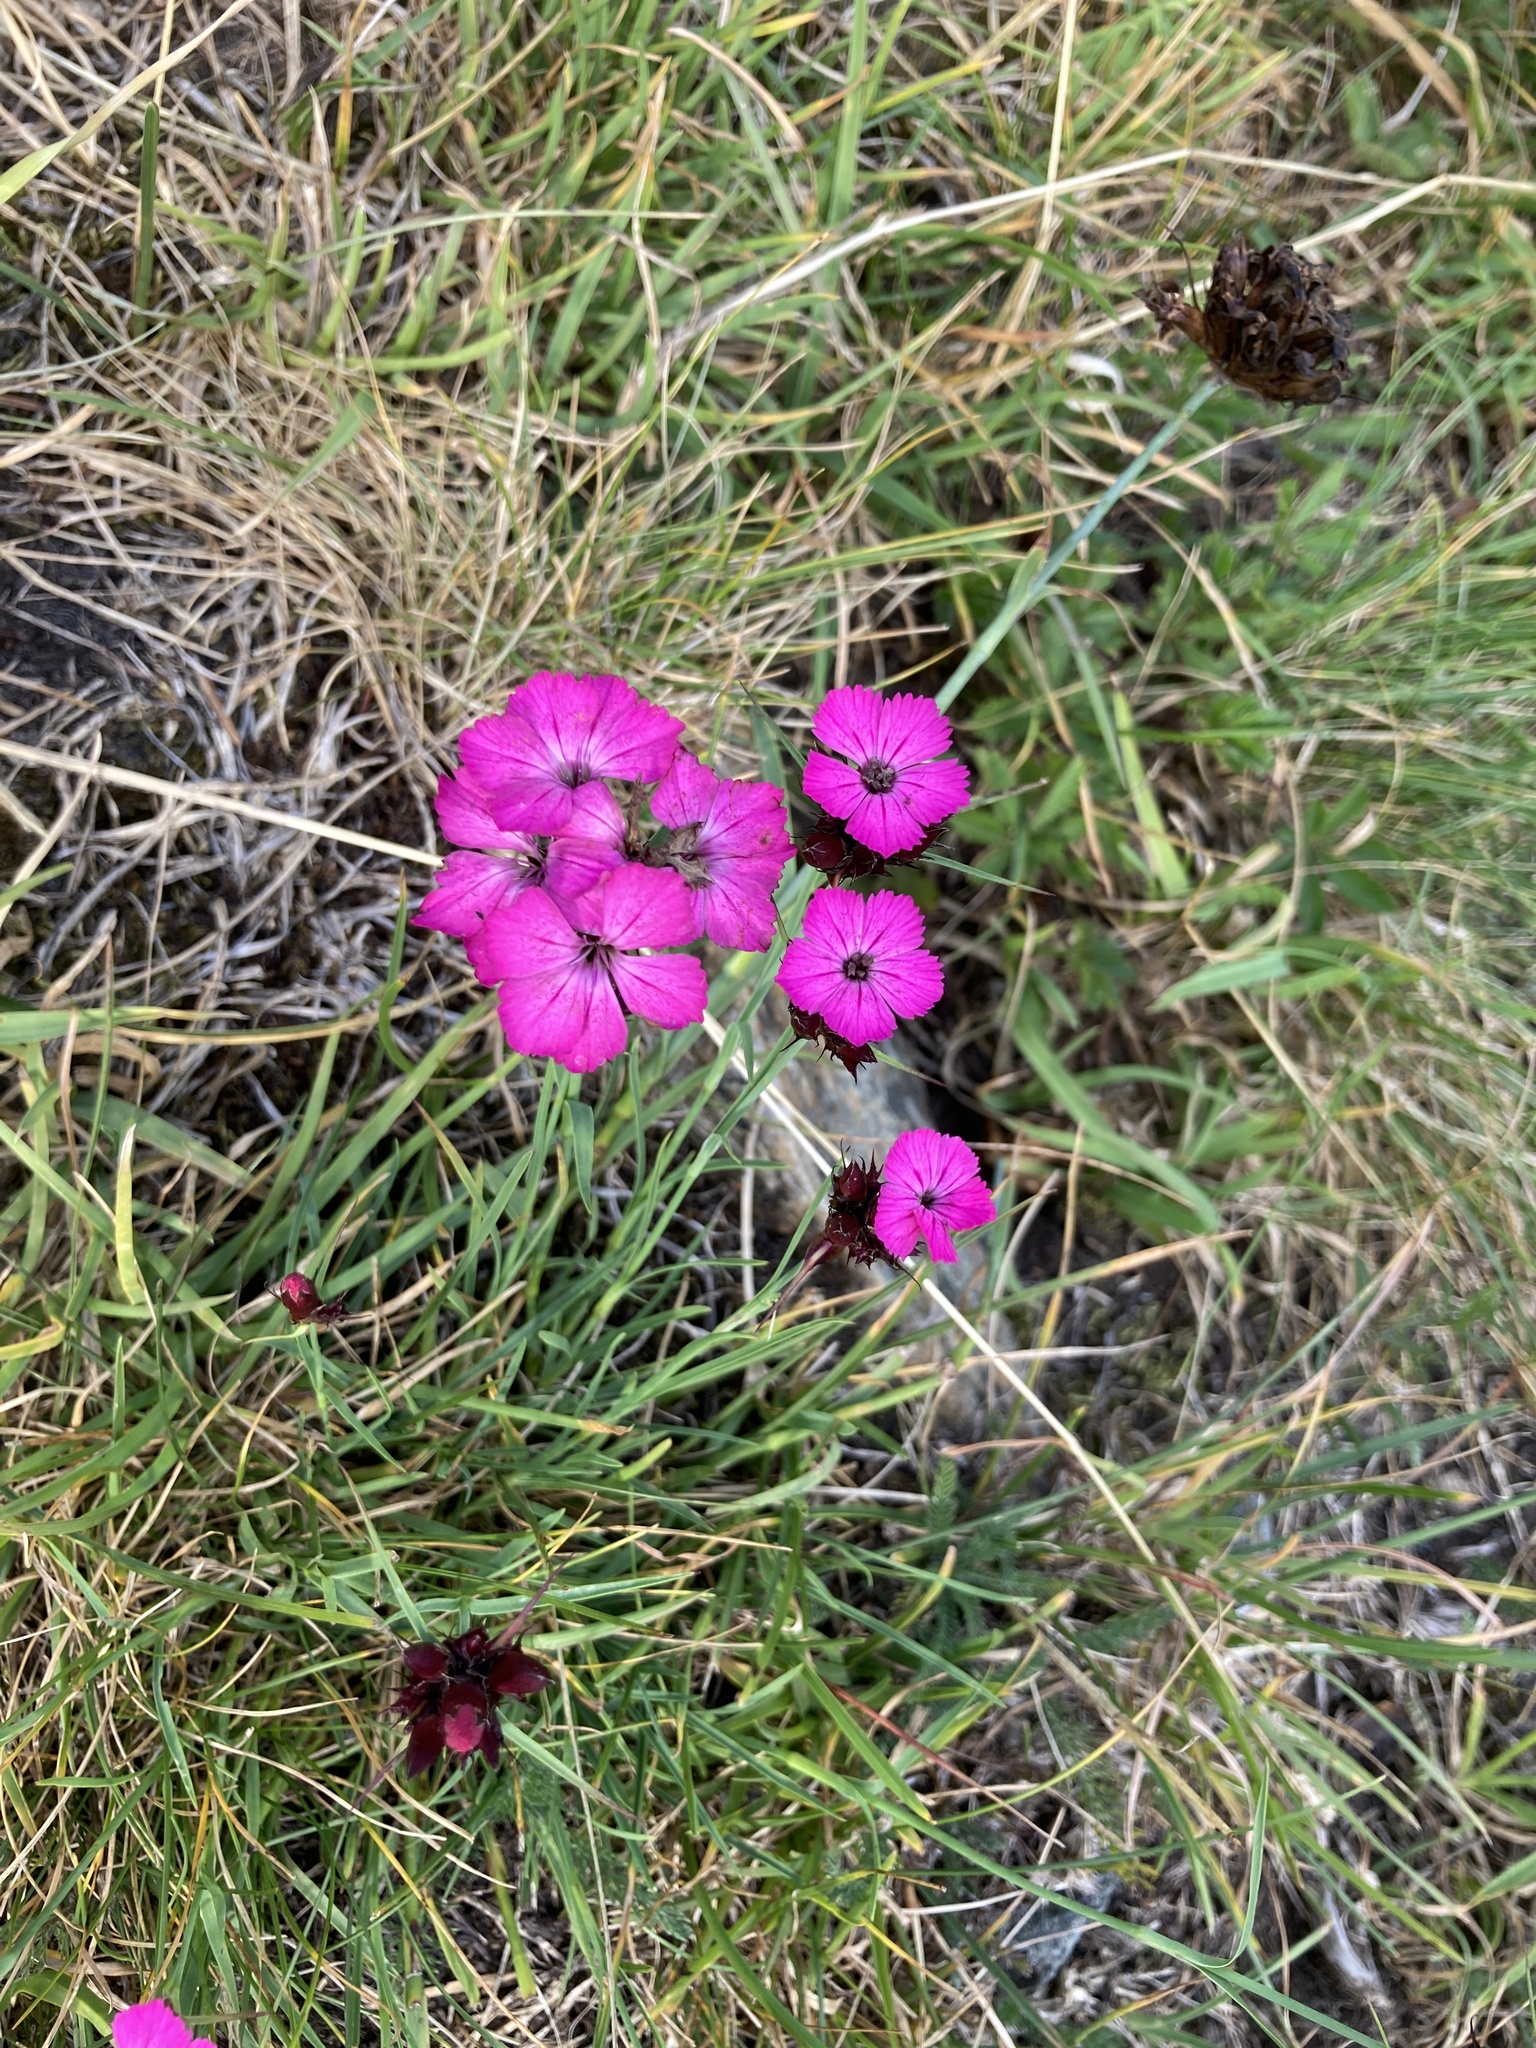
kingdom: Plantae
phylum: Tracheophyta
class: Magnoliopsida
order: Caryophyllales
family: Caryophyllaceae
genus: Dianthus
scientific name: Dianthus carthusianorum
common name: Carthusian pink
